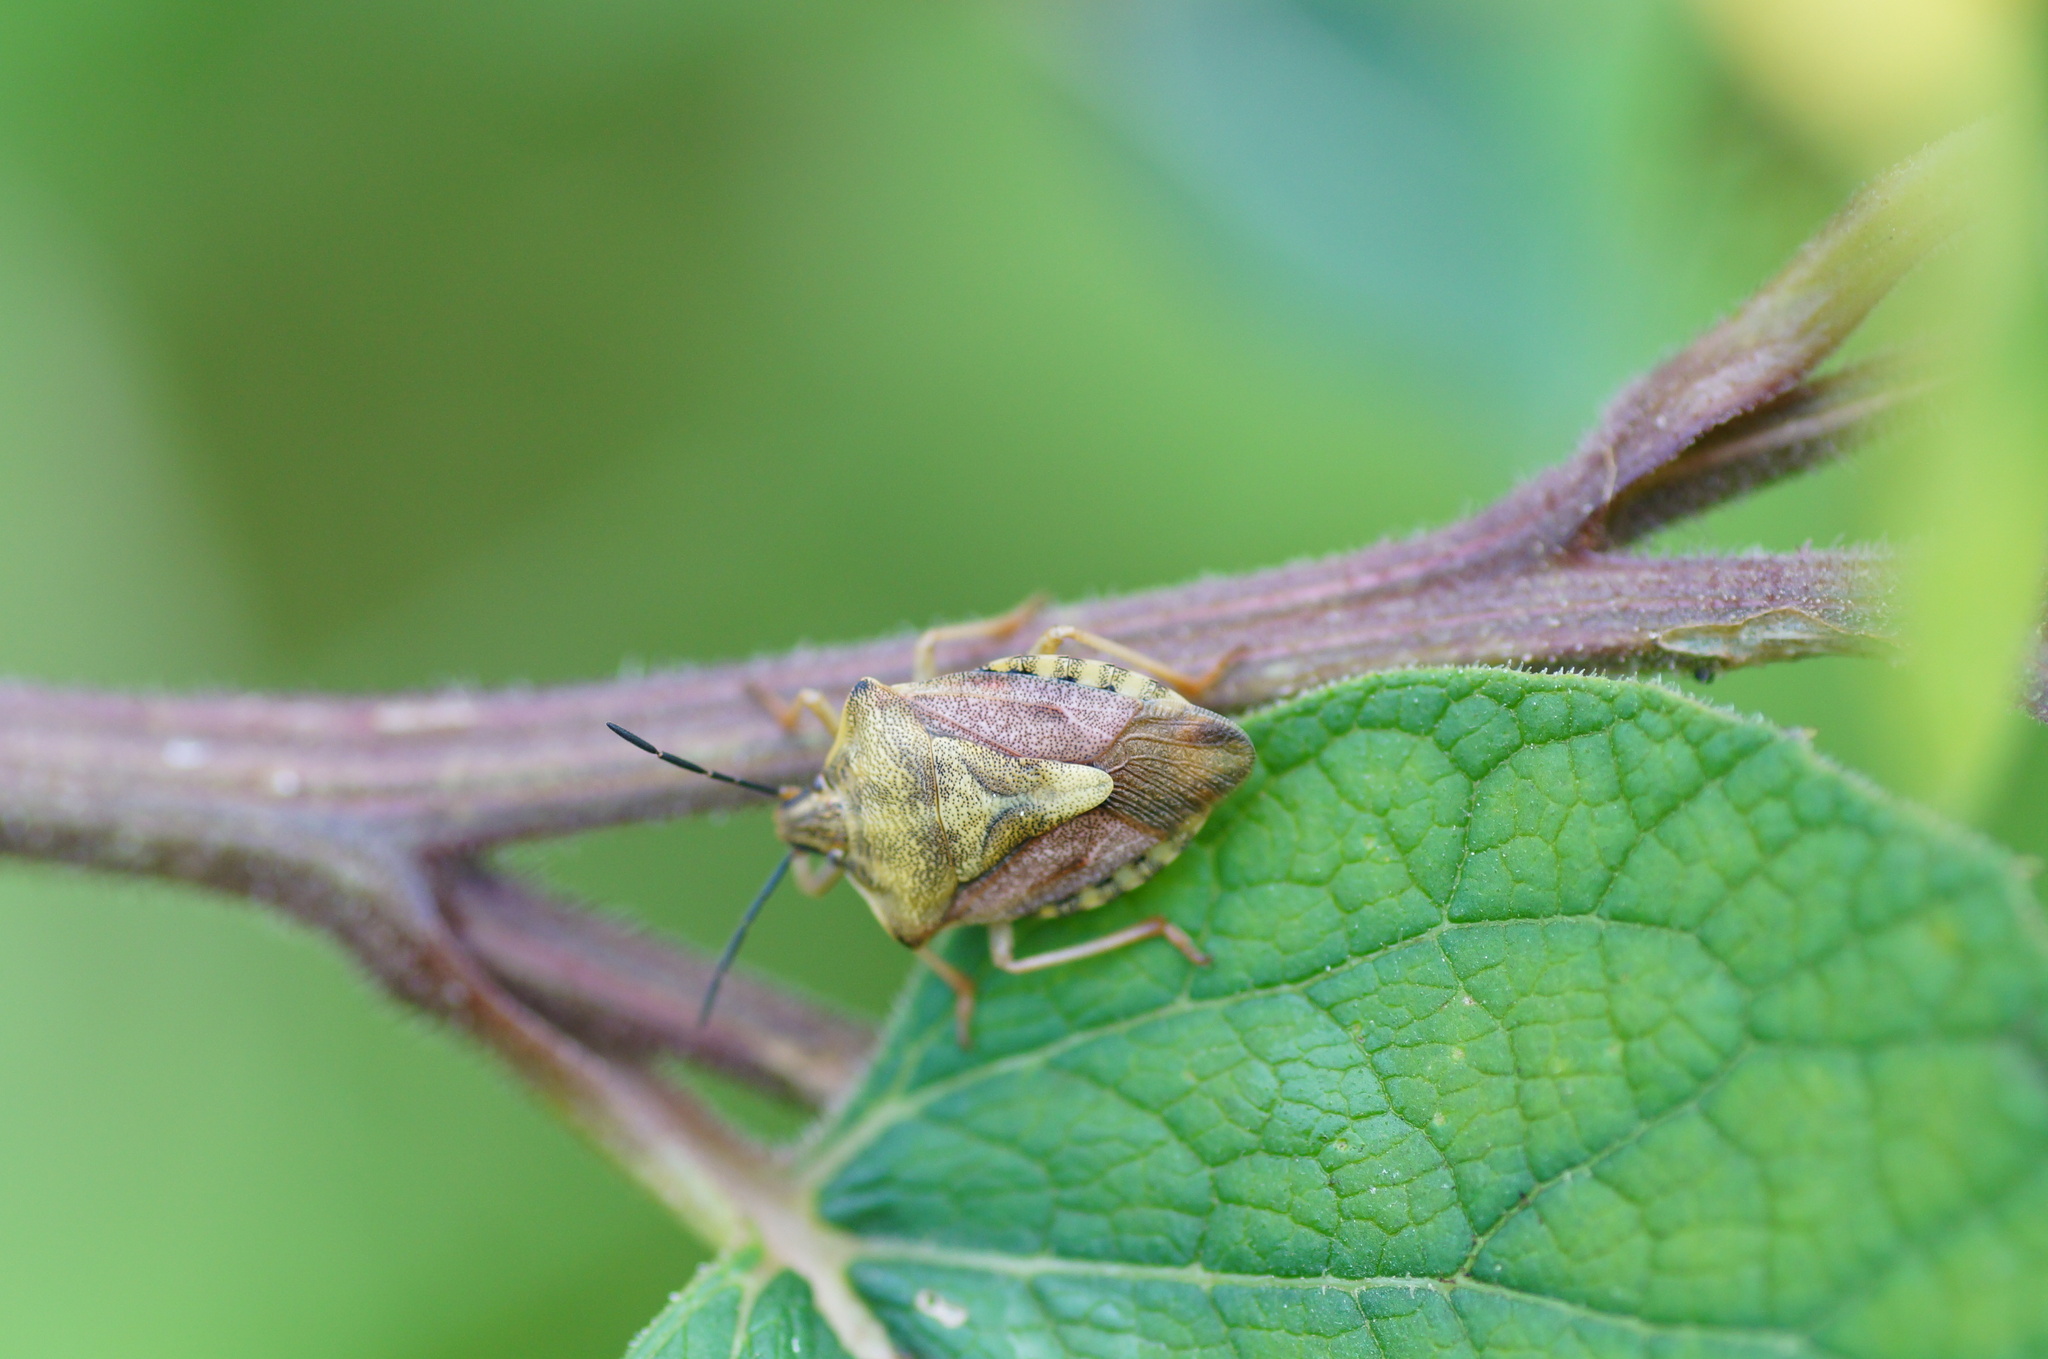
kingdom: Animalia
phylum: Arthropoda
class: Insecta
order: Hemiptera
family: Pentatomidae
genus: Carpocoris
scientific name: Carpocoris purpureipennis
